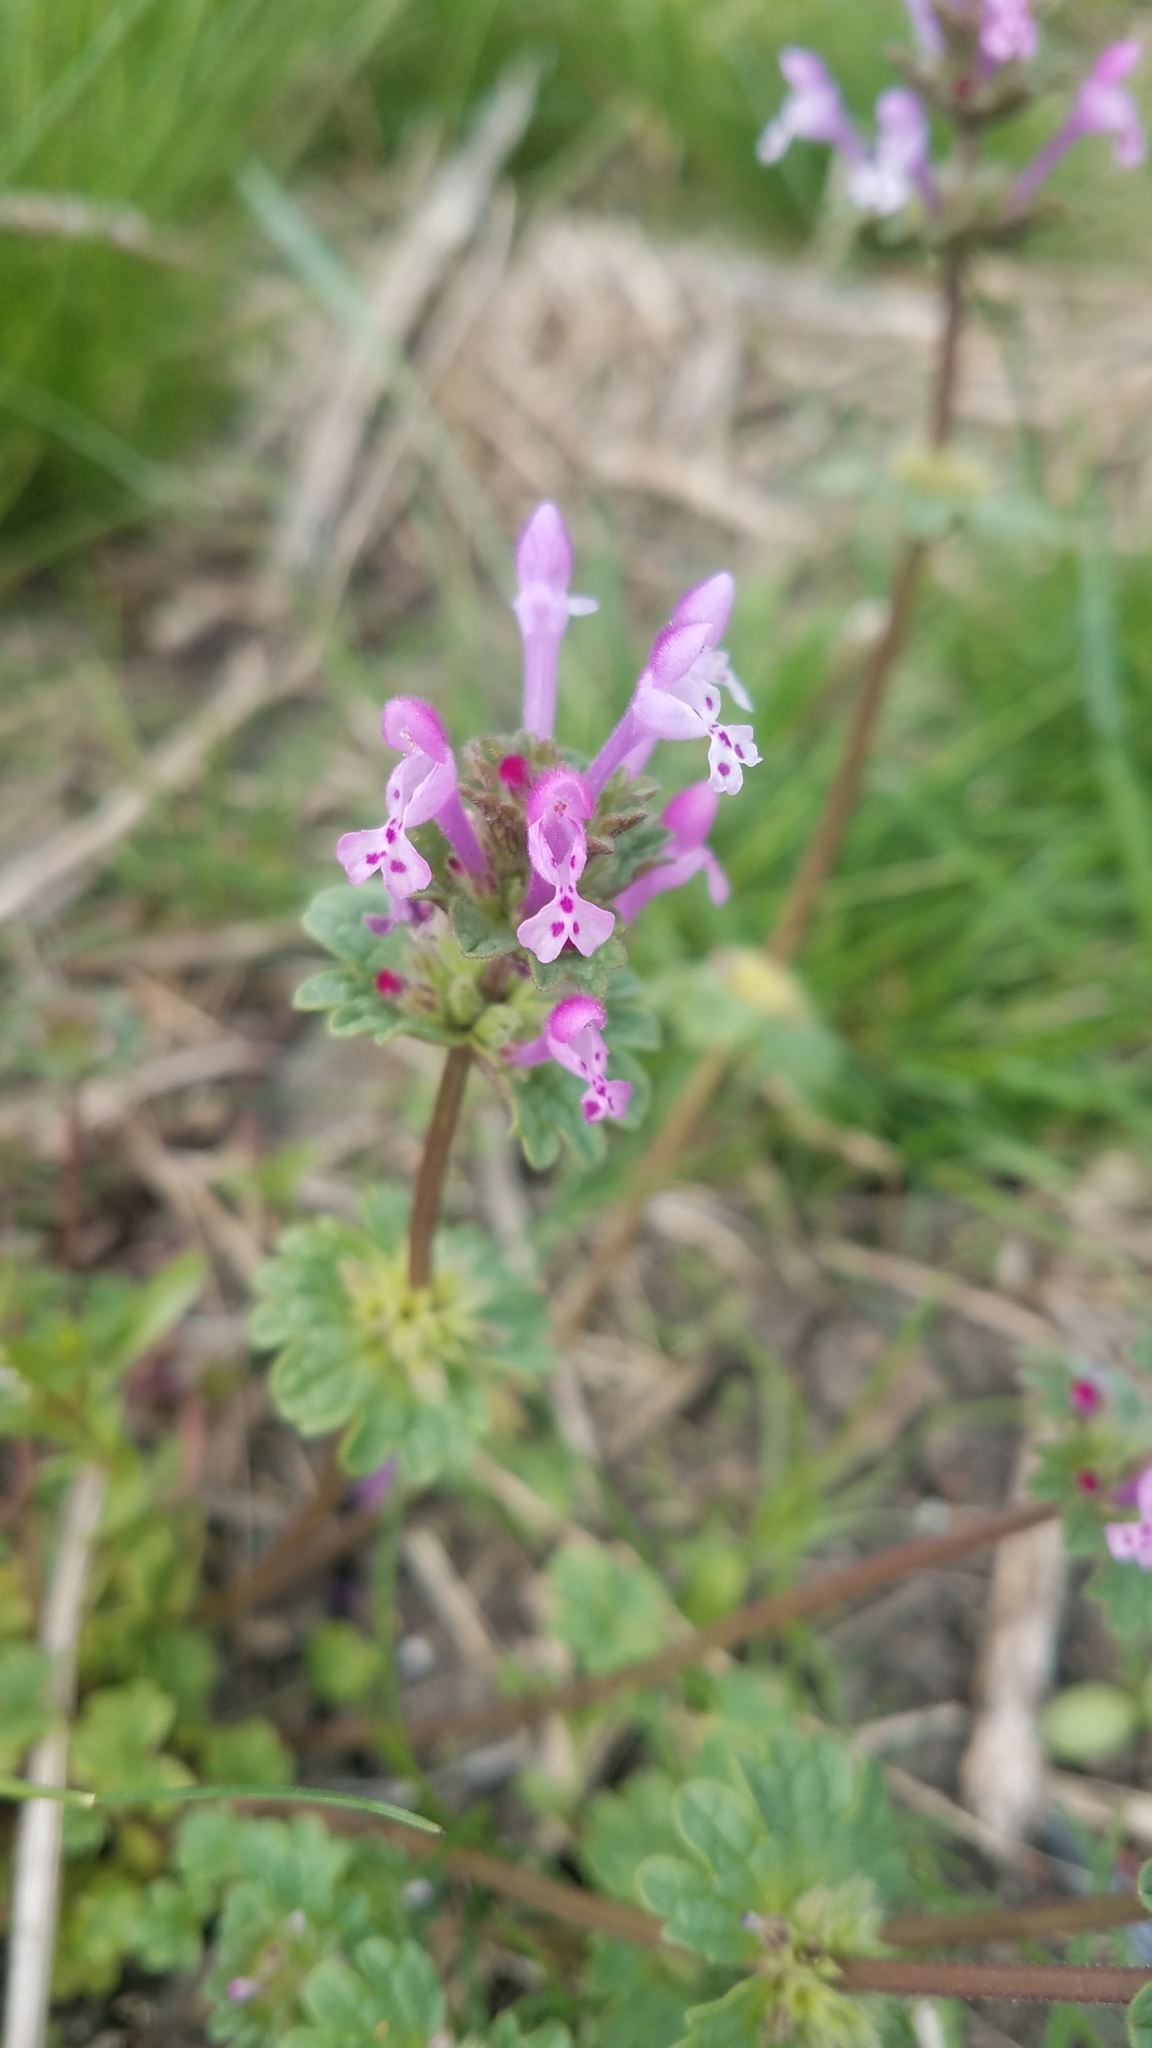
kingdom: Plantae
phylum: Tracheophyta
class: Magnoliopsida
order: Lamiales
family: Lamiaceae
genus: Lamium
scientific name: Lamium amplexicaule
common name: Henbit dead-nettle
